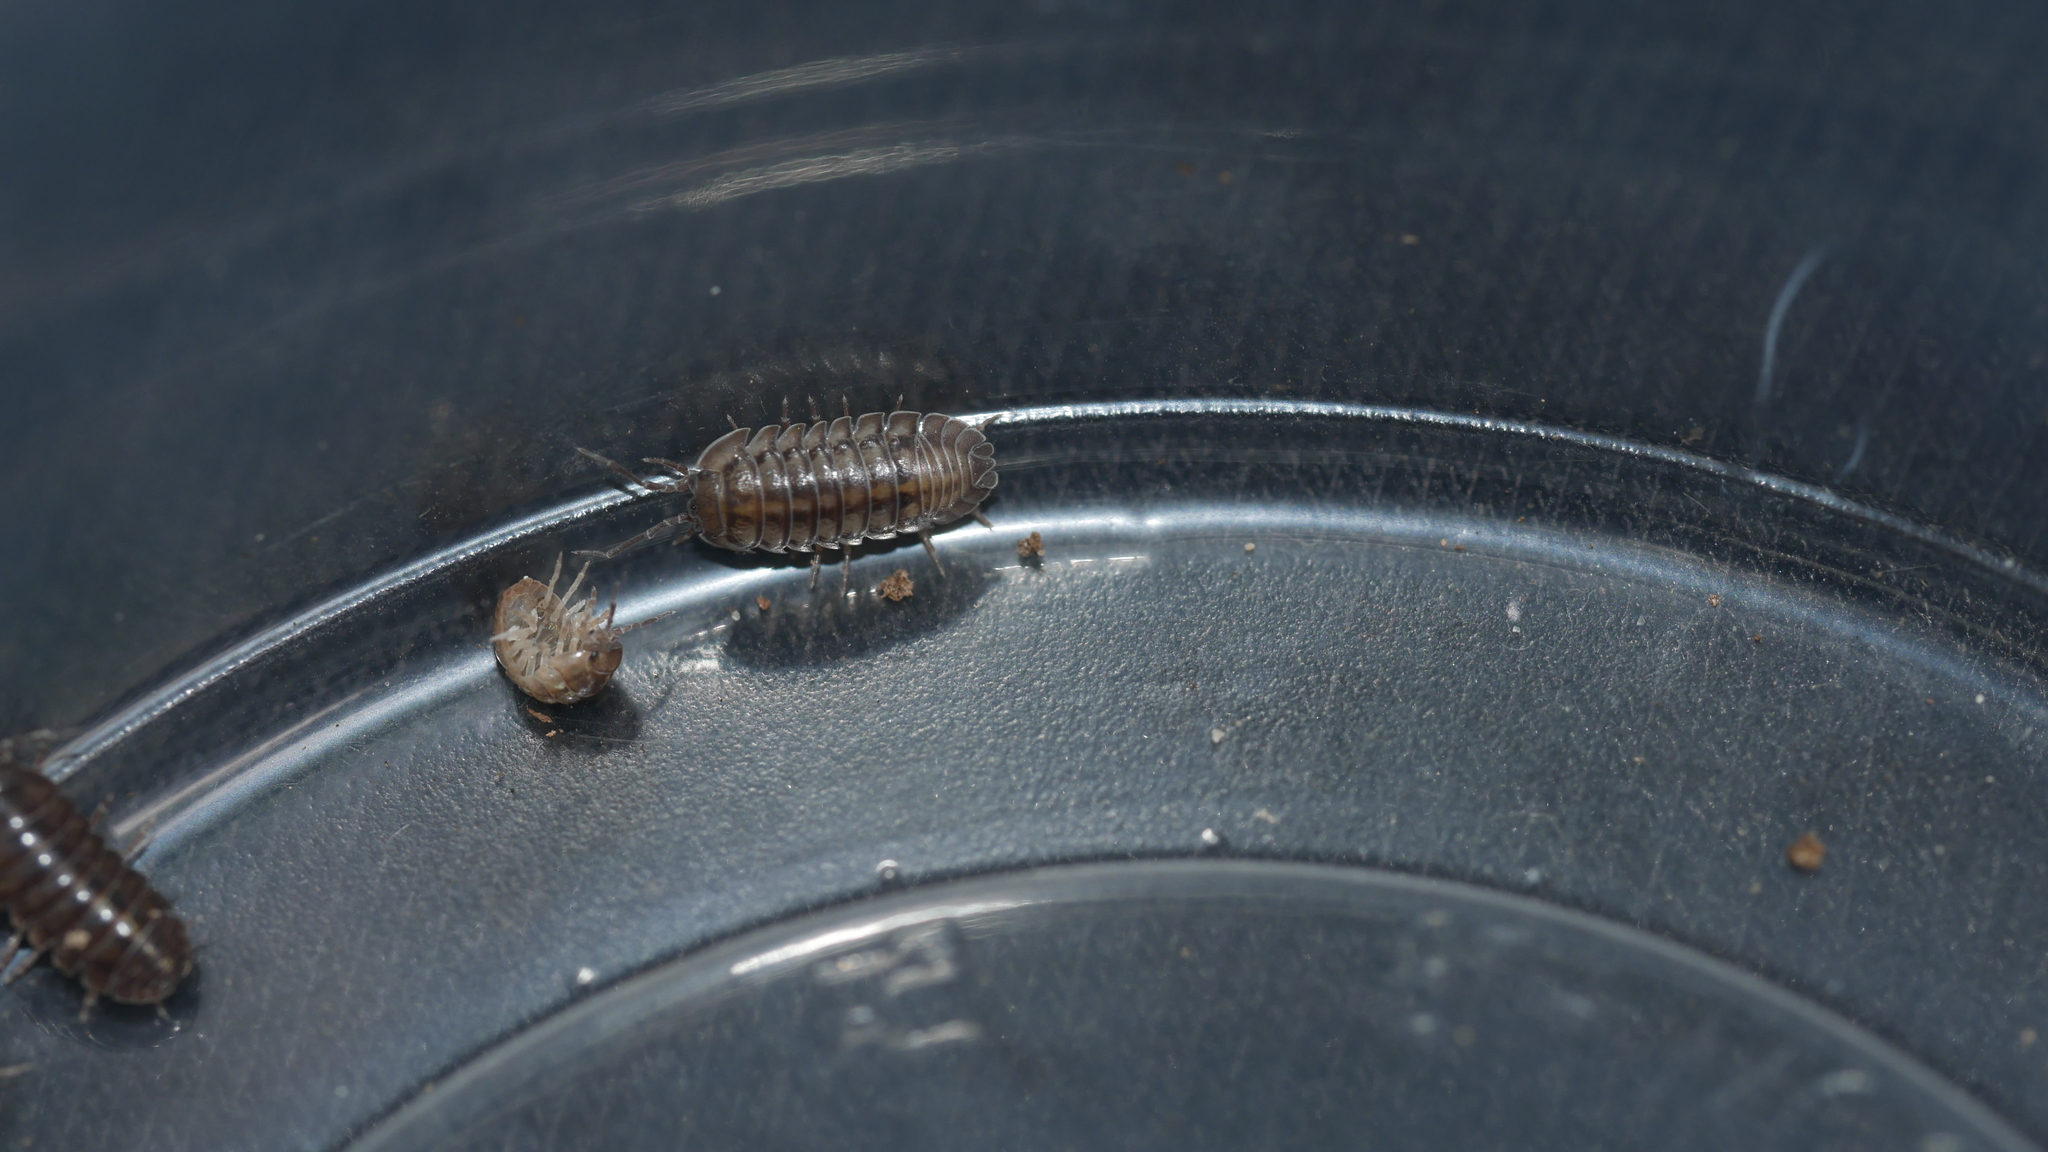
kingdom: Animalia
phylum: Arthropoda
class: Malacostraca
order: Isopoda
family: Armadillidiidae
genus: Armadillidium
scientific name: Armadillidium nasatum
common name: Isopod
